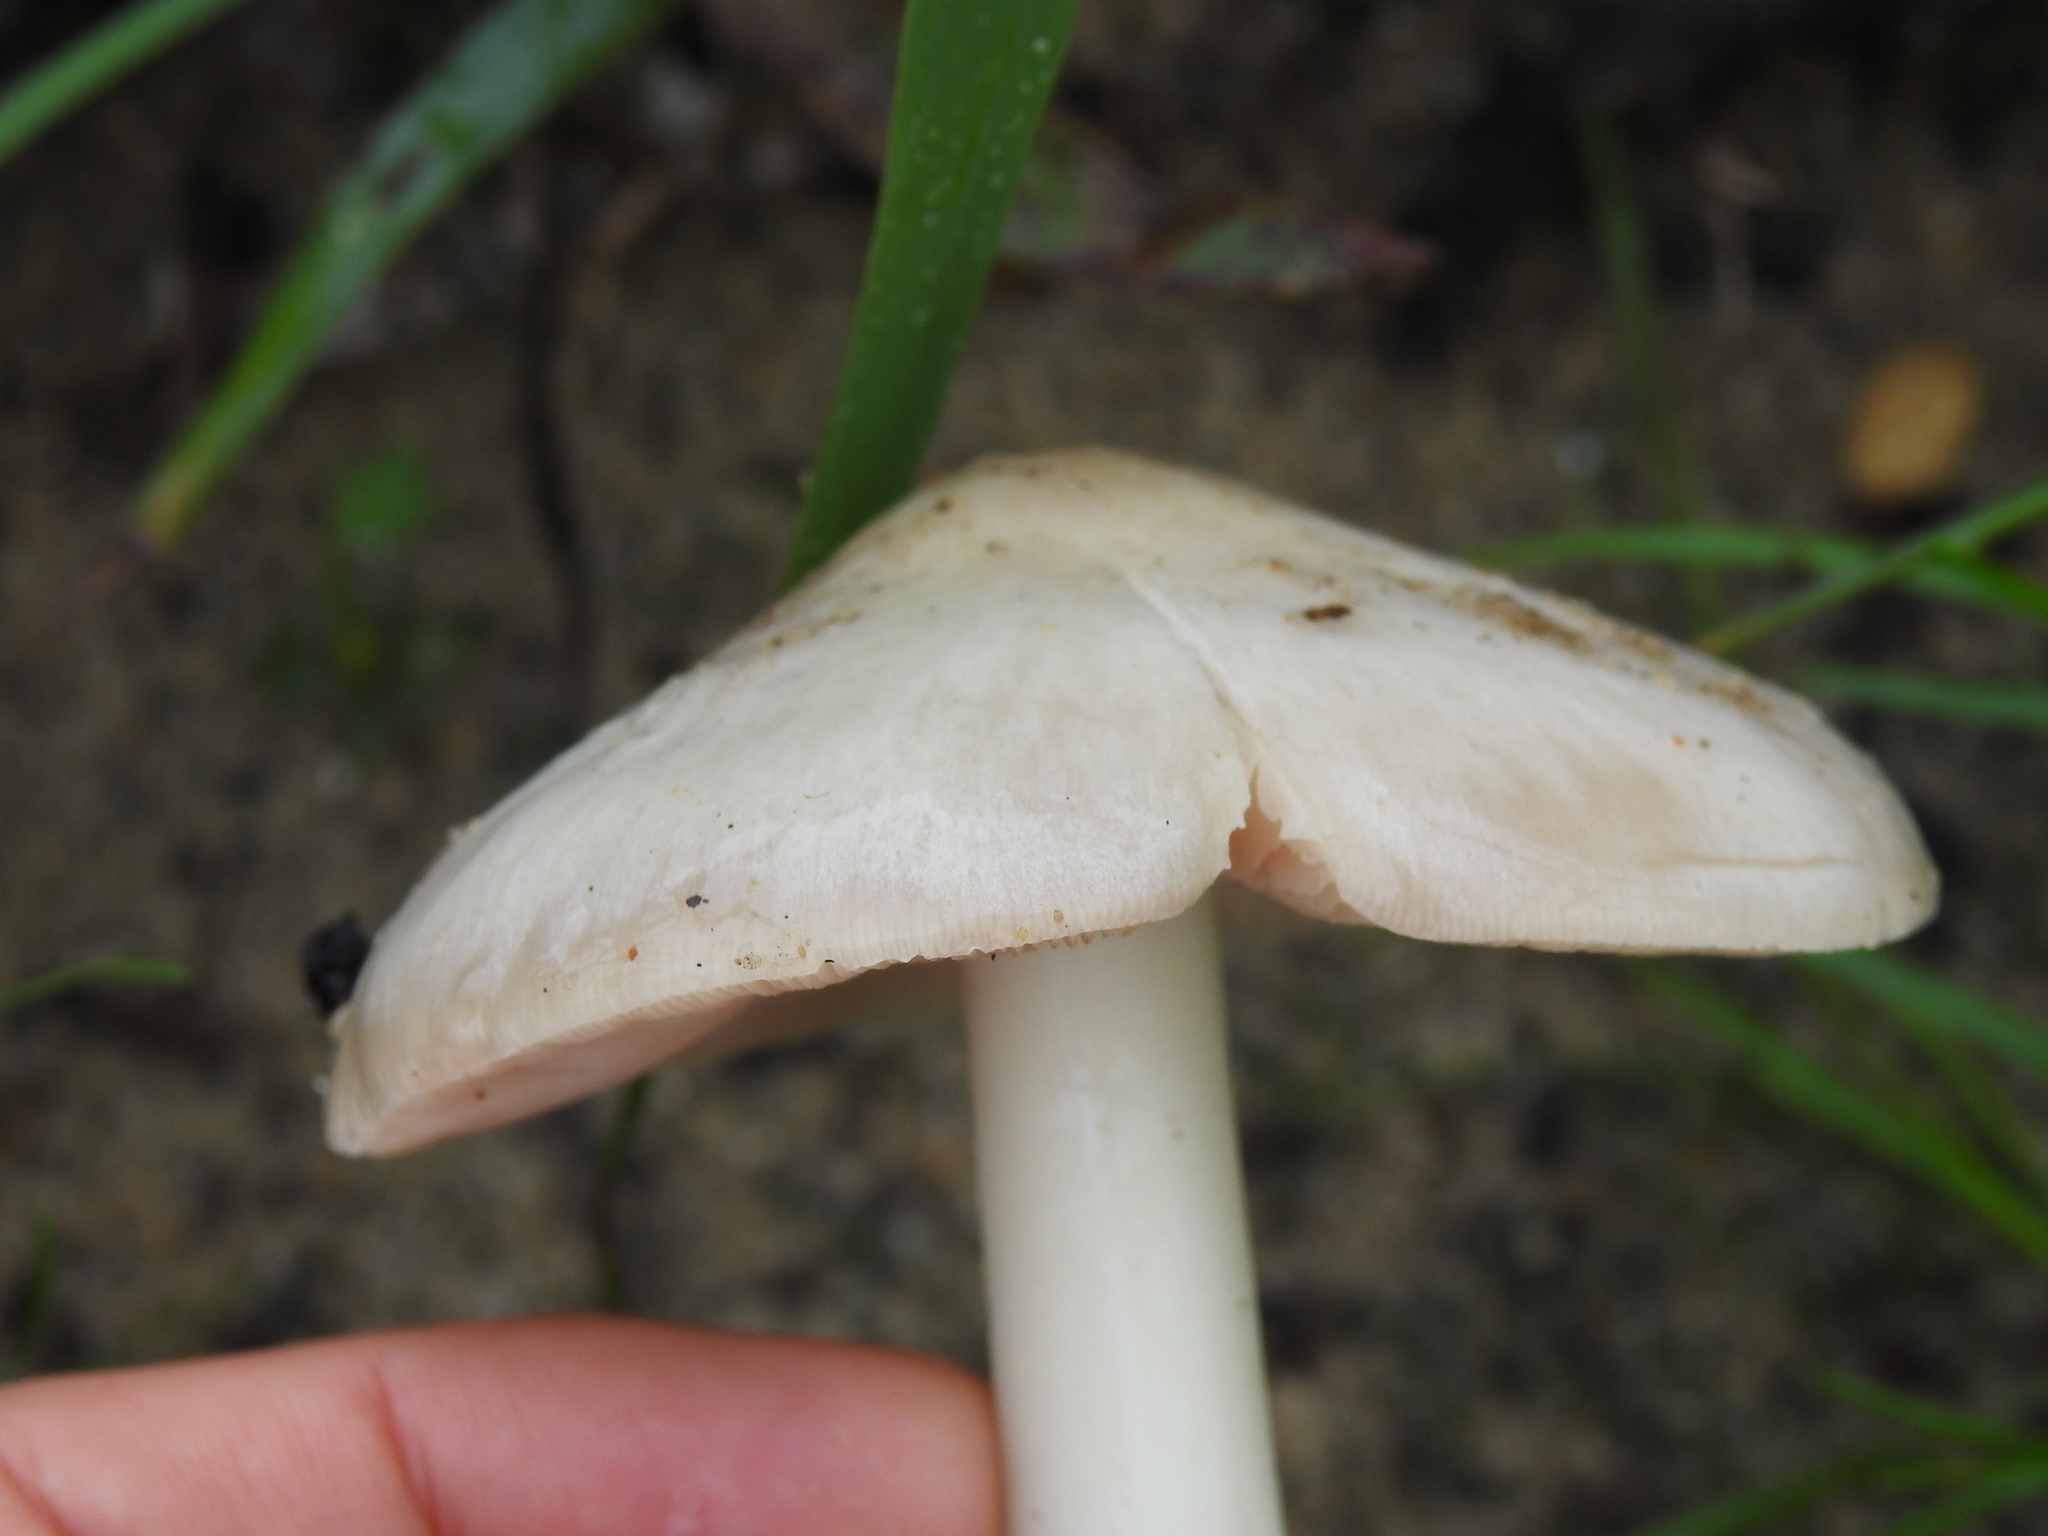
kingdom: Fungi
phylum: Basidiomycota
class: Agaricomycetes
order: Agaricales
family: Pluteaceae
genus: Volvopluteus
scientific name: Volvopluteus gloiocephalus
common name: Stubble rosegill
